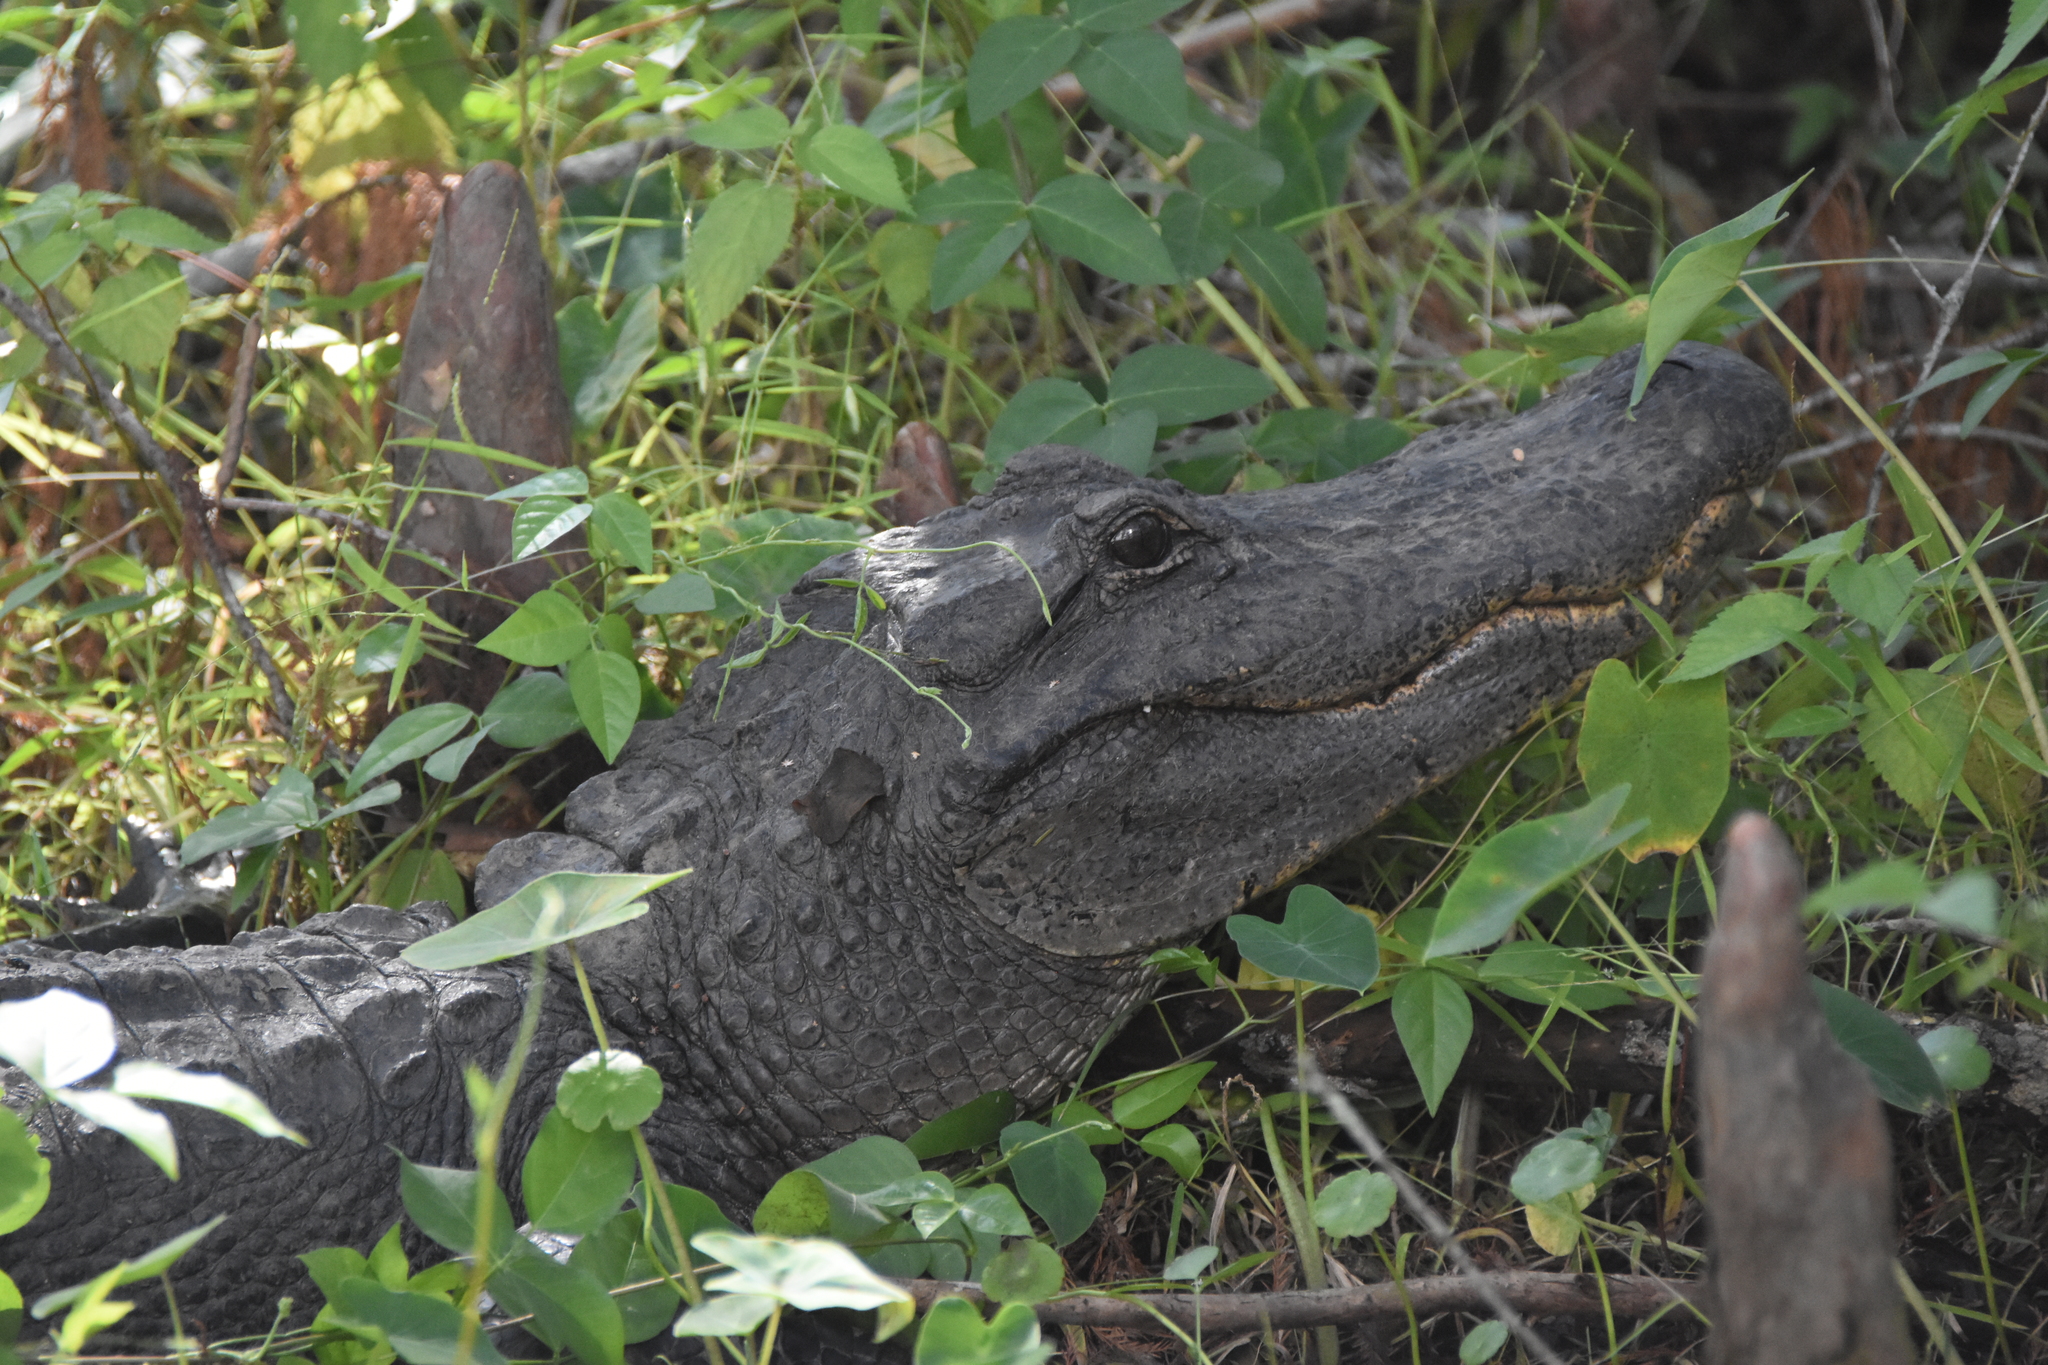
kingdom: Animalia
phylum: Chordata
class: Crocodylia
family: Alligatoridae
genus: Alligator
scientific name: Alligator mississippiensis
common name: American alligator
